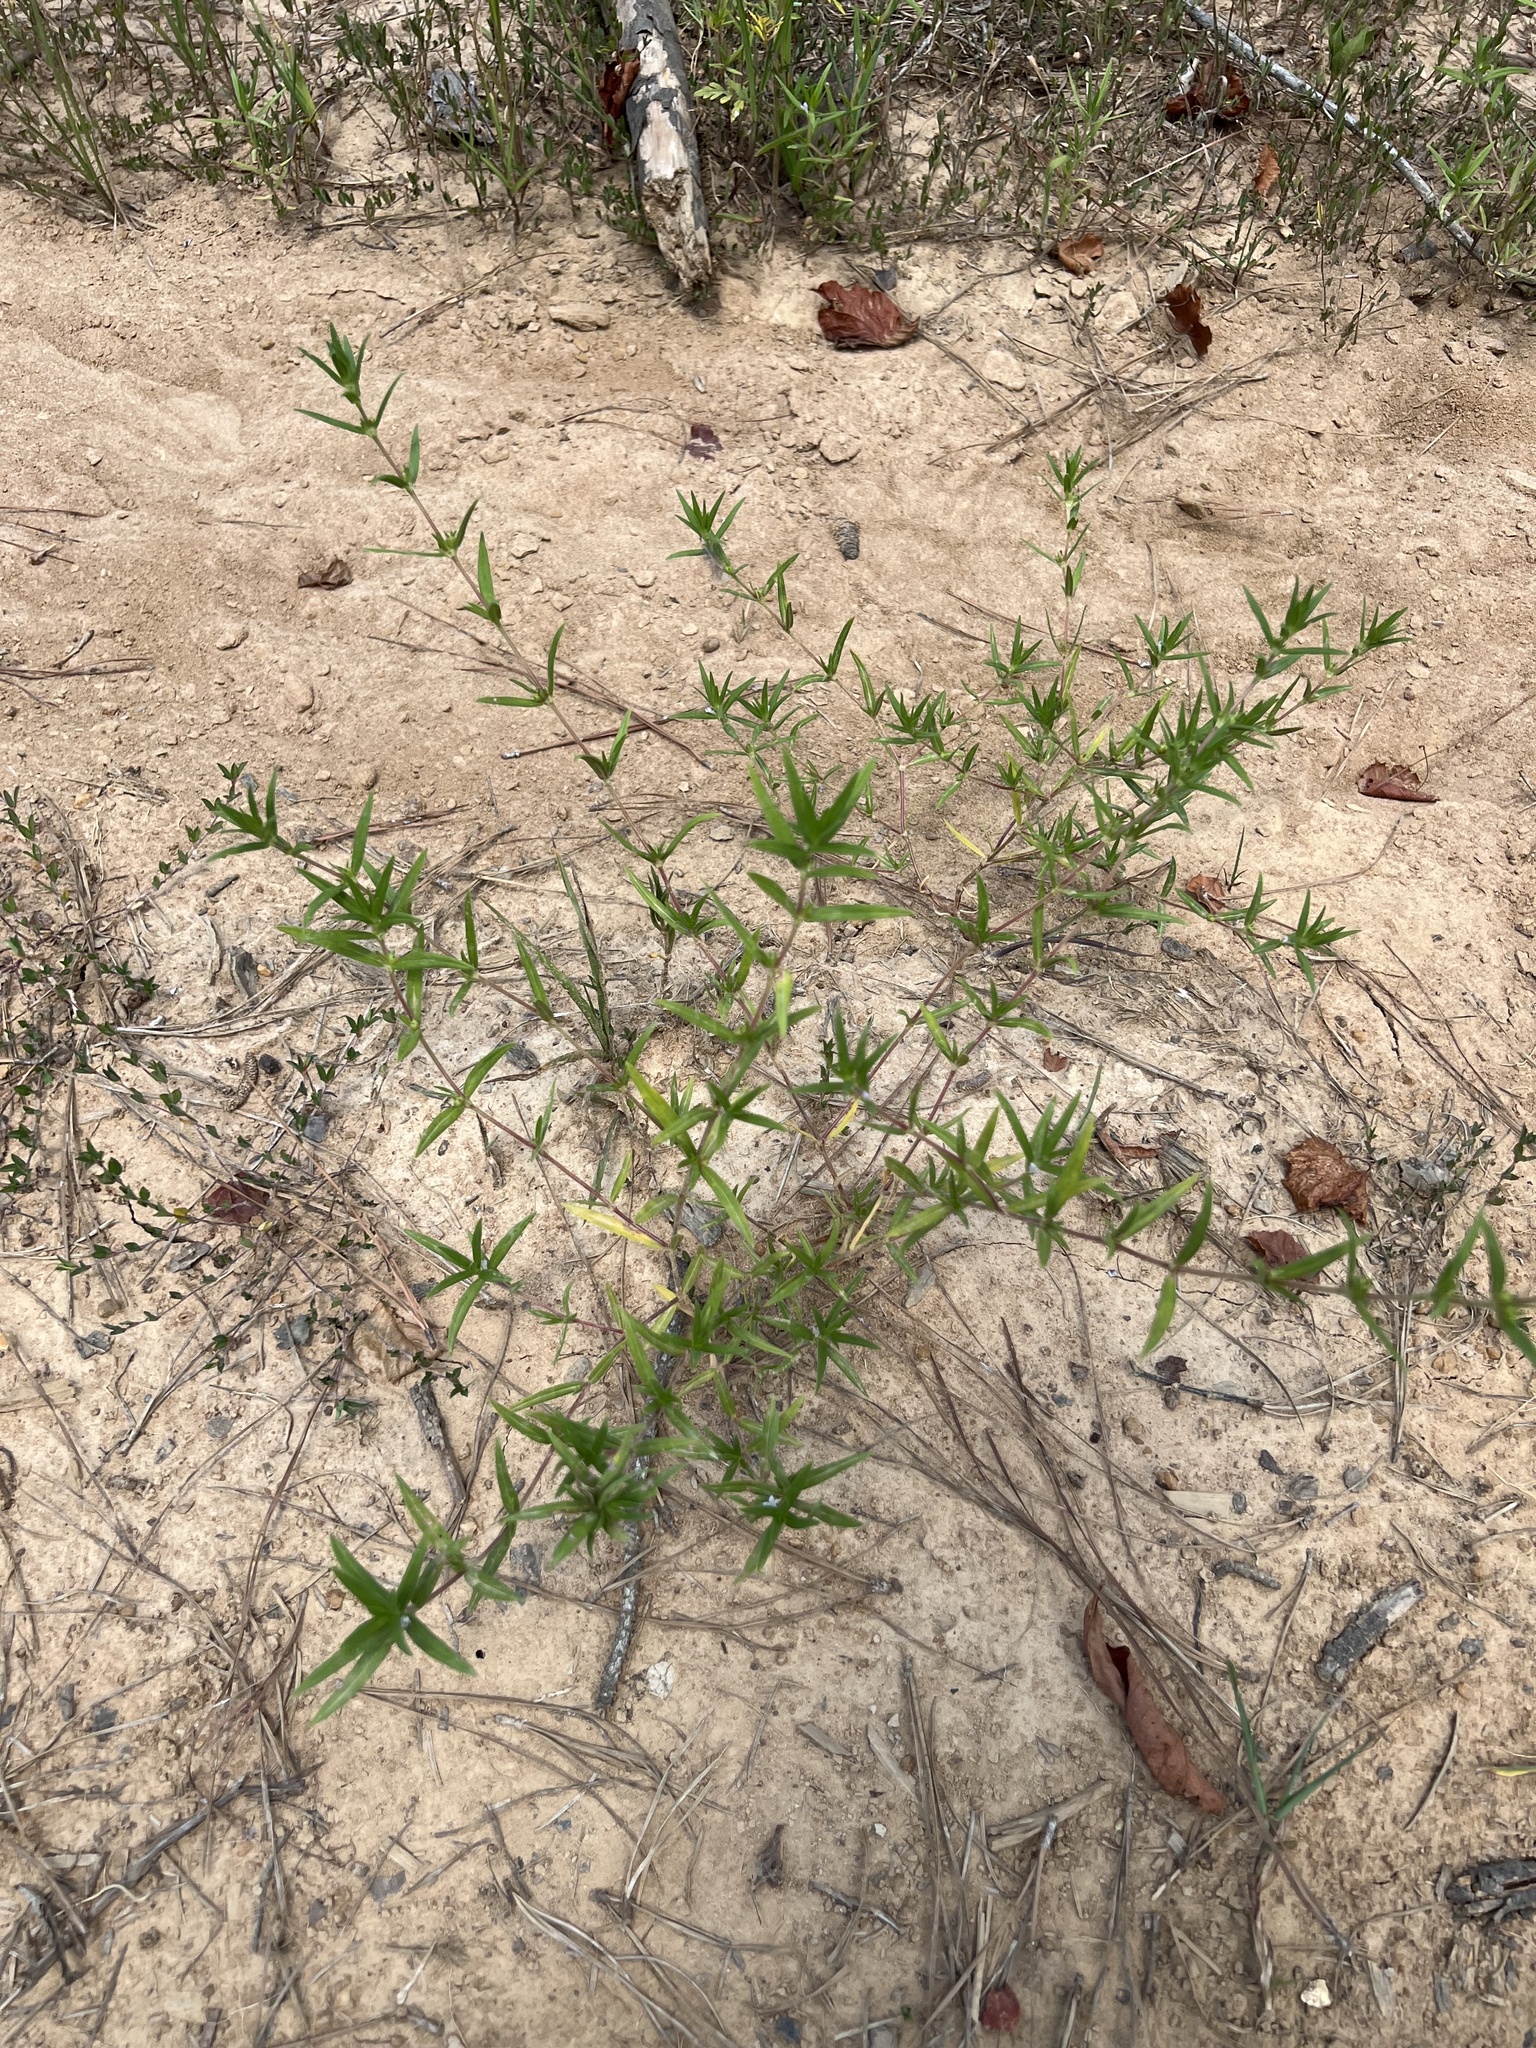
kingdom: Plantae
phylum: Tracheophyta
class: Magnoliopsida
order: Gentianales
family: Rubiaceae
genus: Hexasepalum
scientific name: Hexasepalum teres
